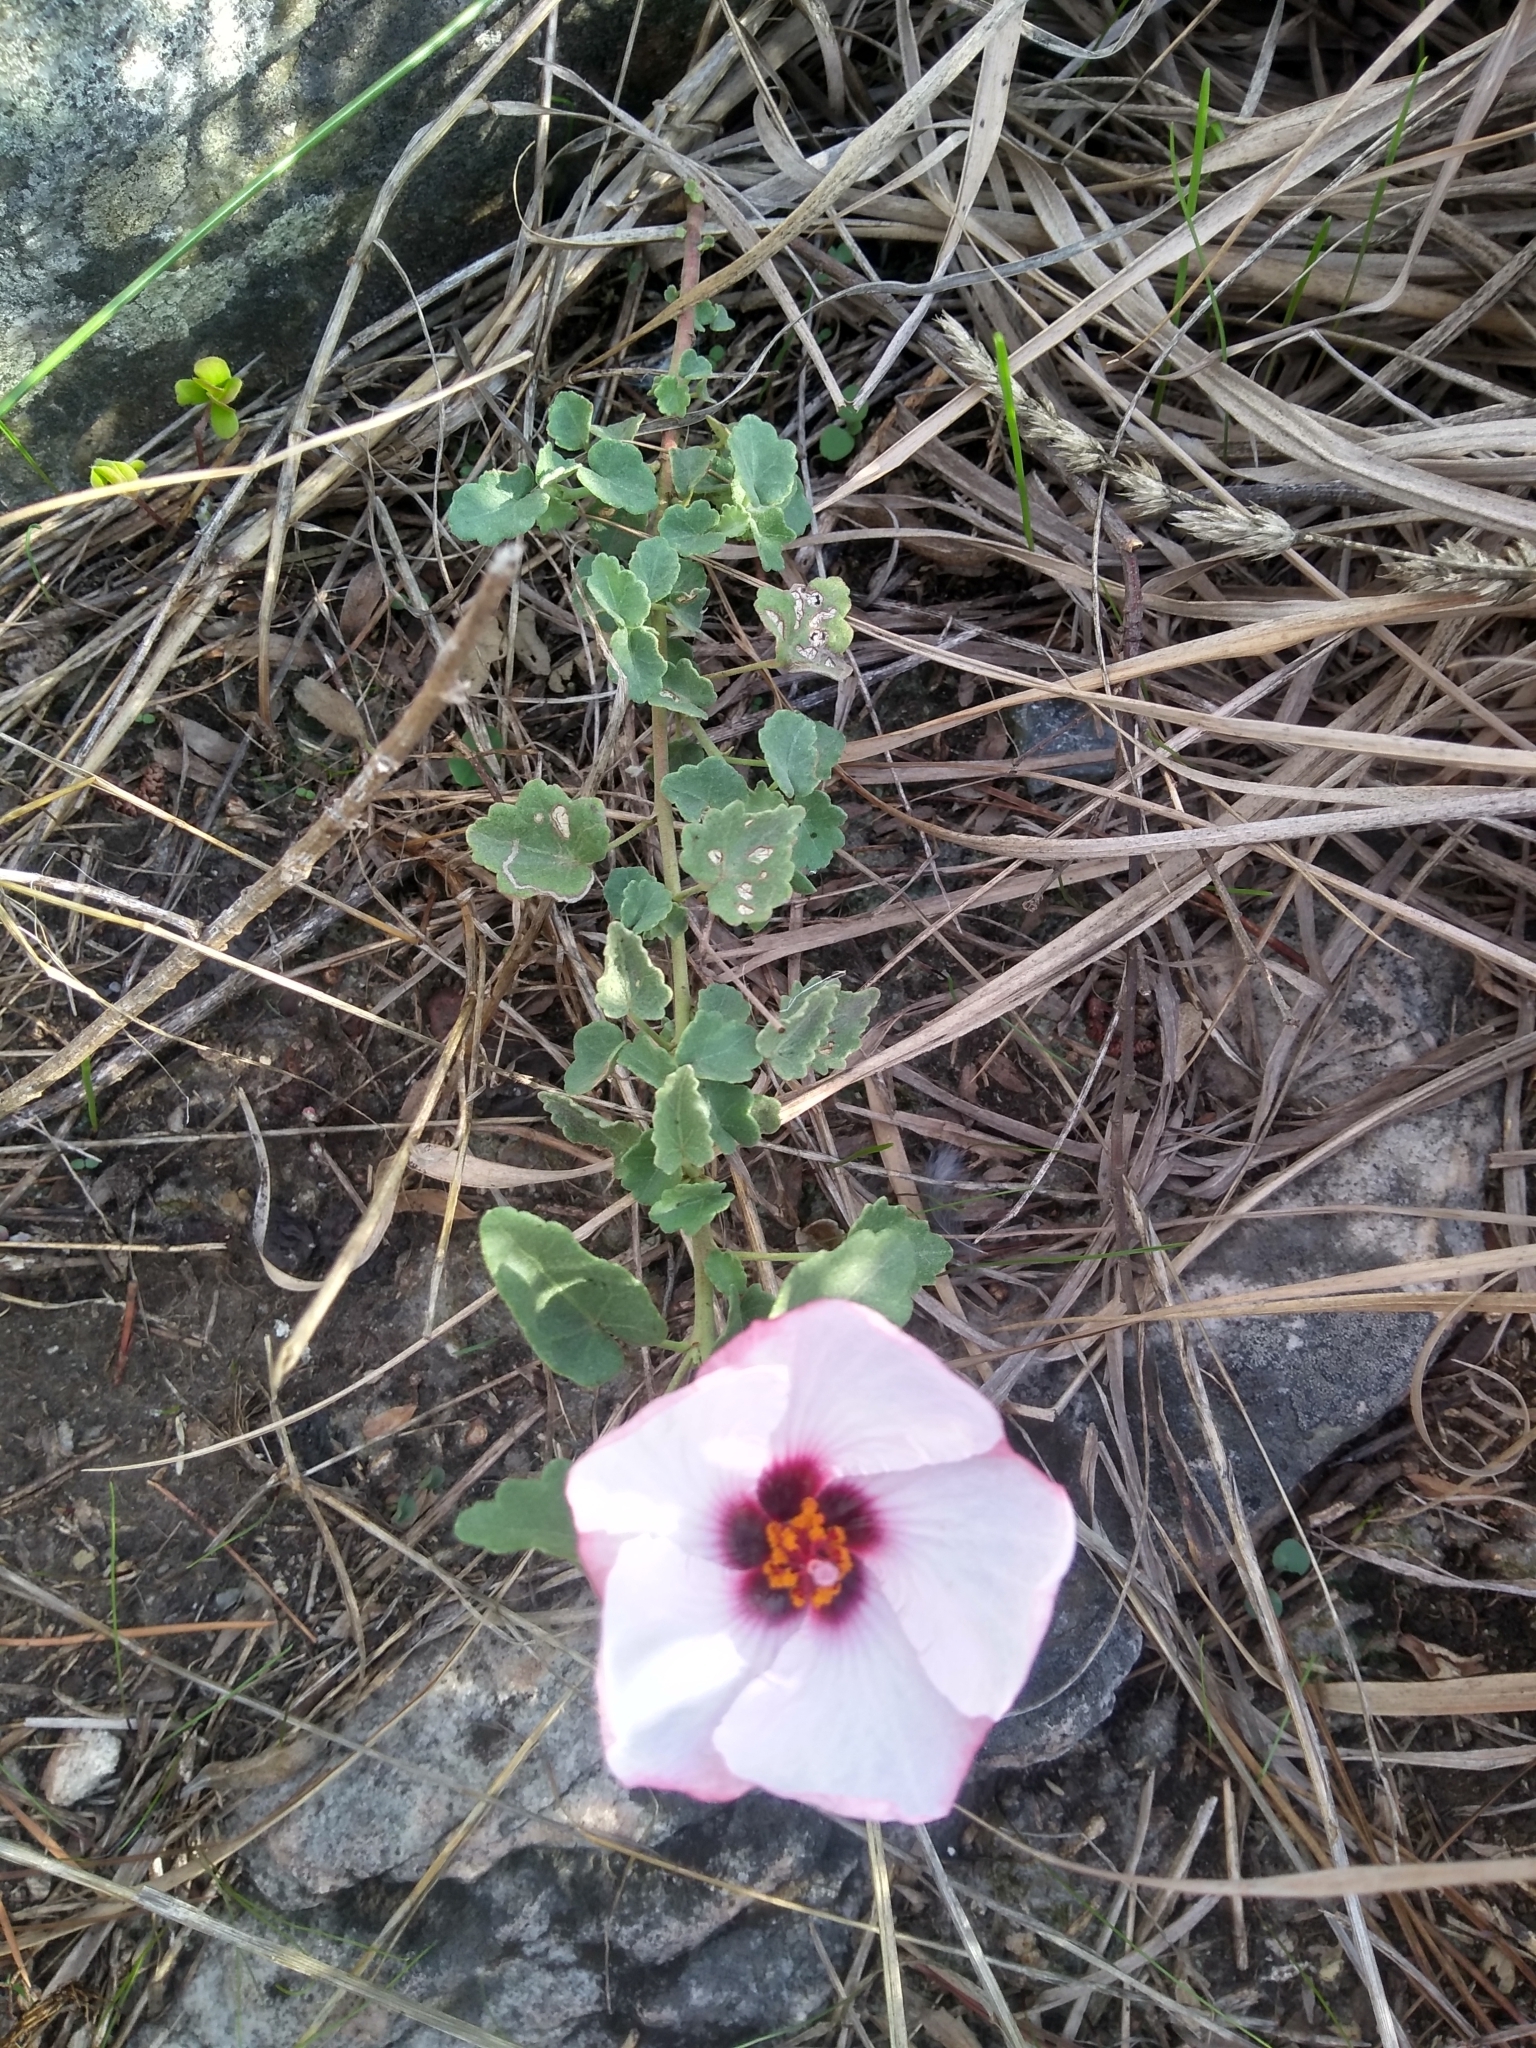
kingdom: Plantae
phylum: Tracheophyta
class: Magnoliopsida
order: Malvales
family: Malvaceae
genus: Pavonia
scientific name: Pavonia glechomoides
